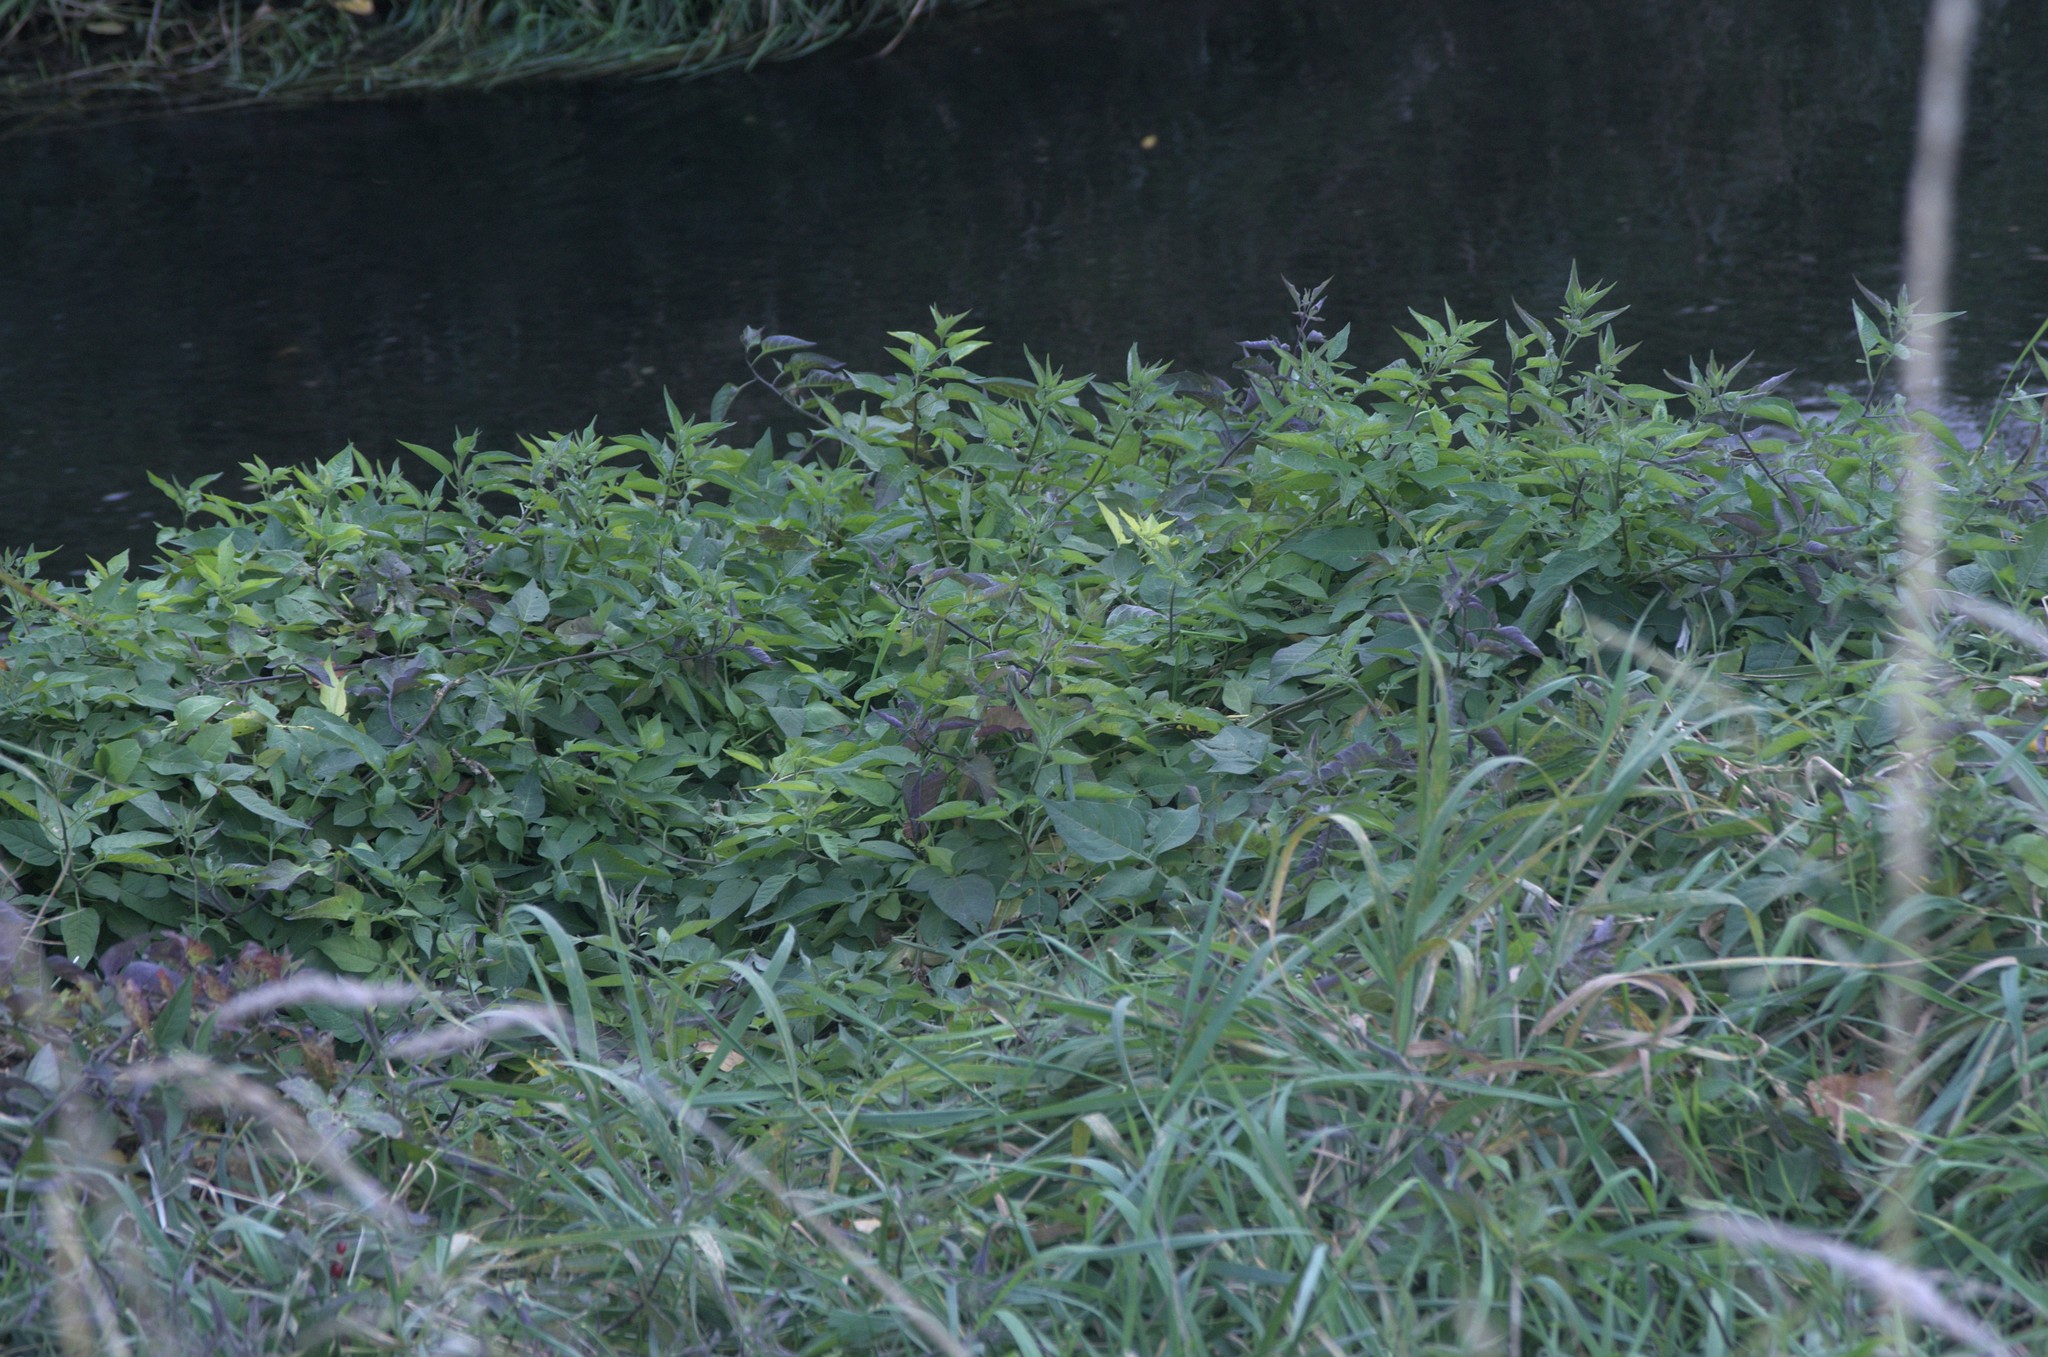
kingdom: Plantae
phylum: Tracheophyta
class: Magnoliopsida
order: Solanales
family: Solanaceae
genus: Solanum
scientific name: Solanum dulcamara
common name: Climbing nightshade
